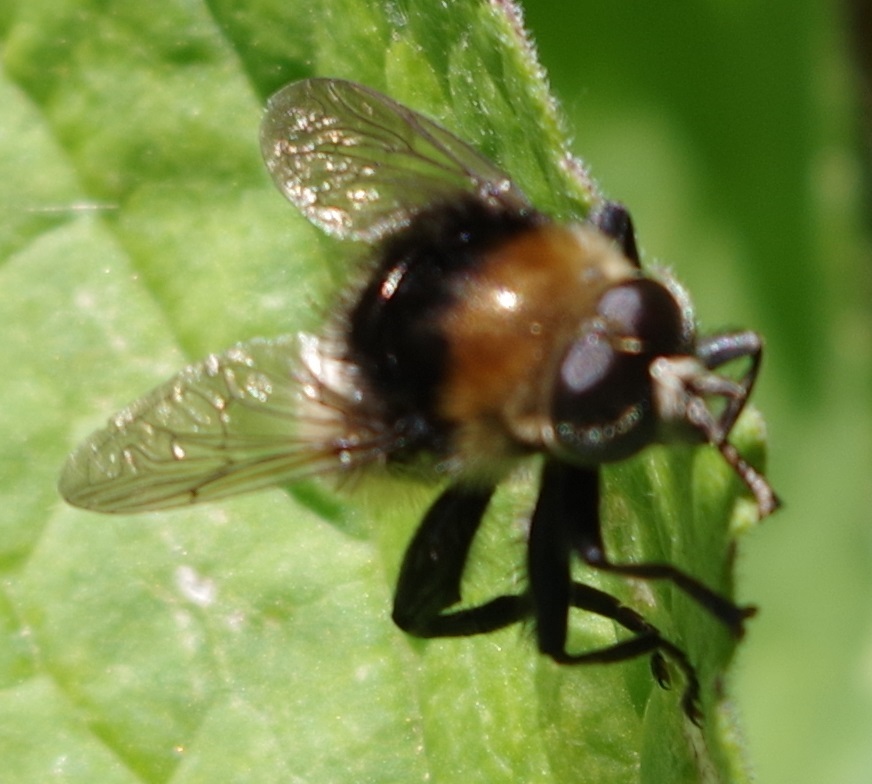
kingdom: Animalia
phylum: Arthropoda
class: Insecta
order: Diptera
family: Syrphidae
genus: Merodon
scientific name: Merodon equestris
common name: Greater bulb-fly
